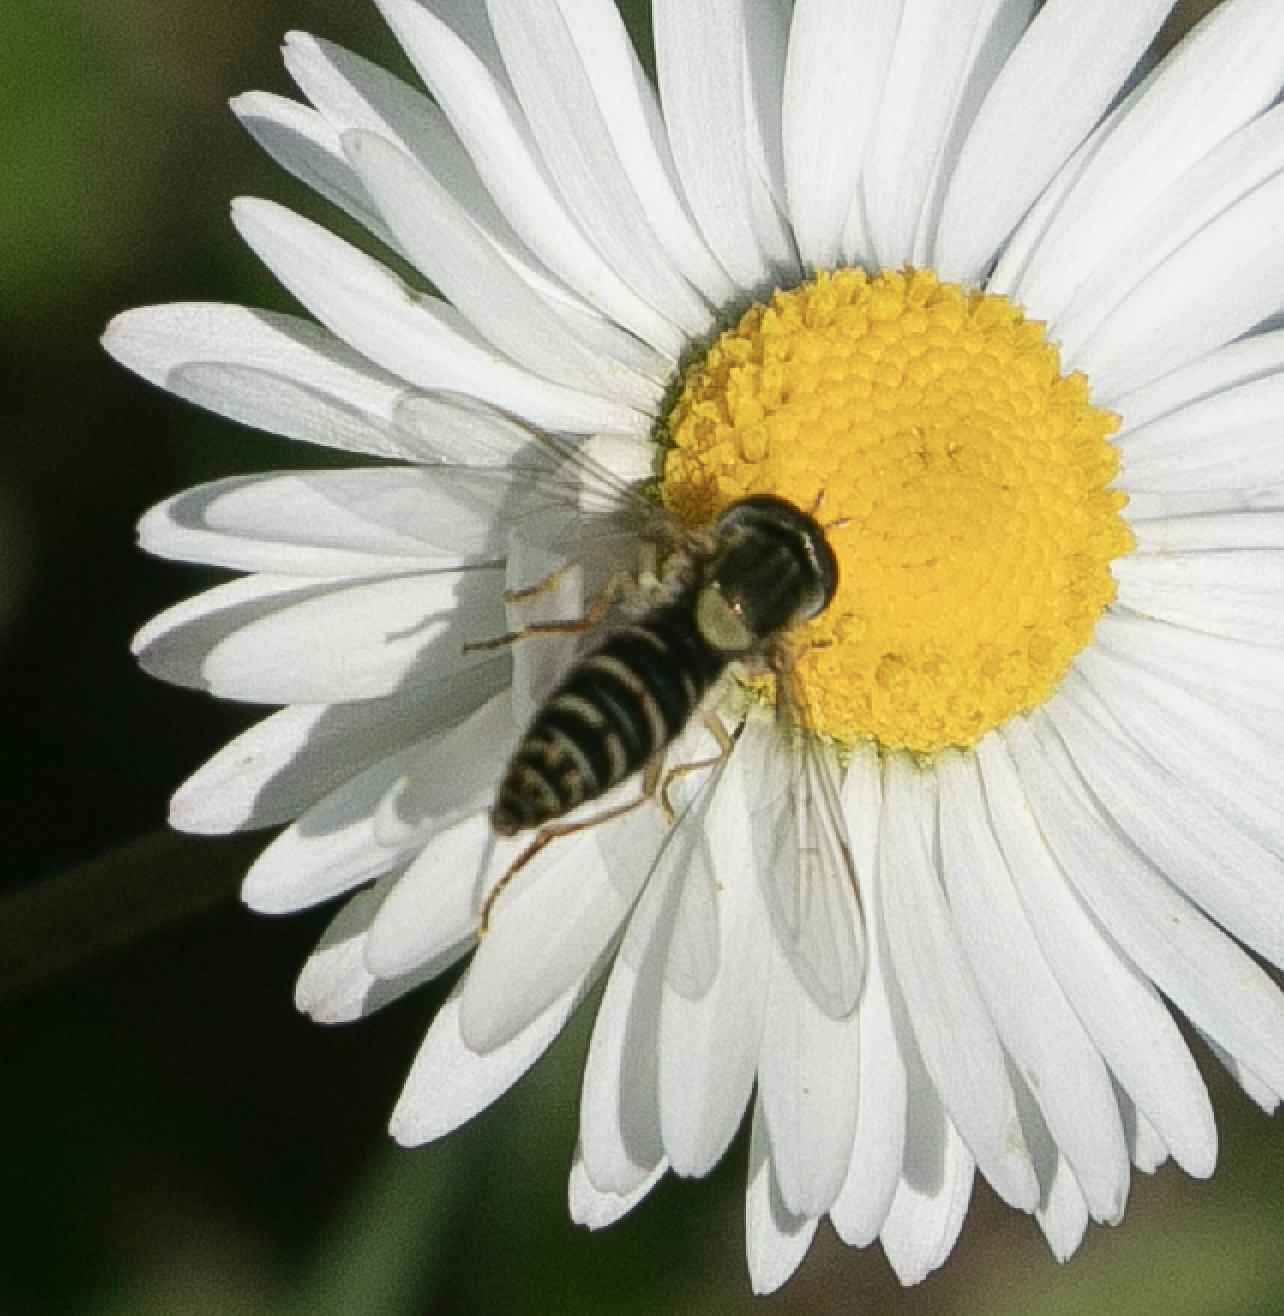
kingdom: Animalia
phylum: Arthropoda
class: Insecta
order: Diptera
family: Syrphidae
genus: Sphaerophoria
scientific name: Sphaerophoria
